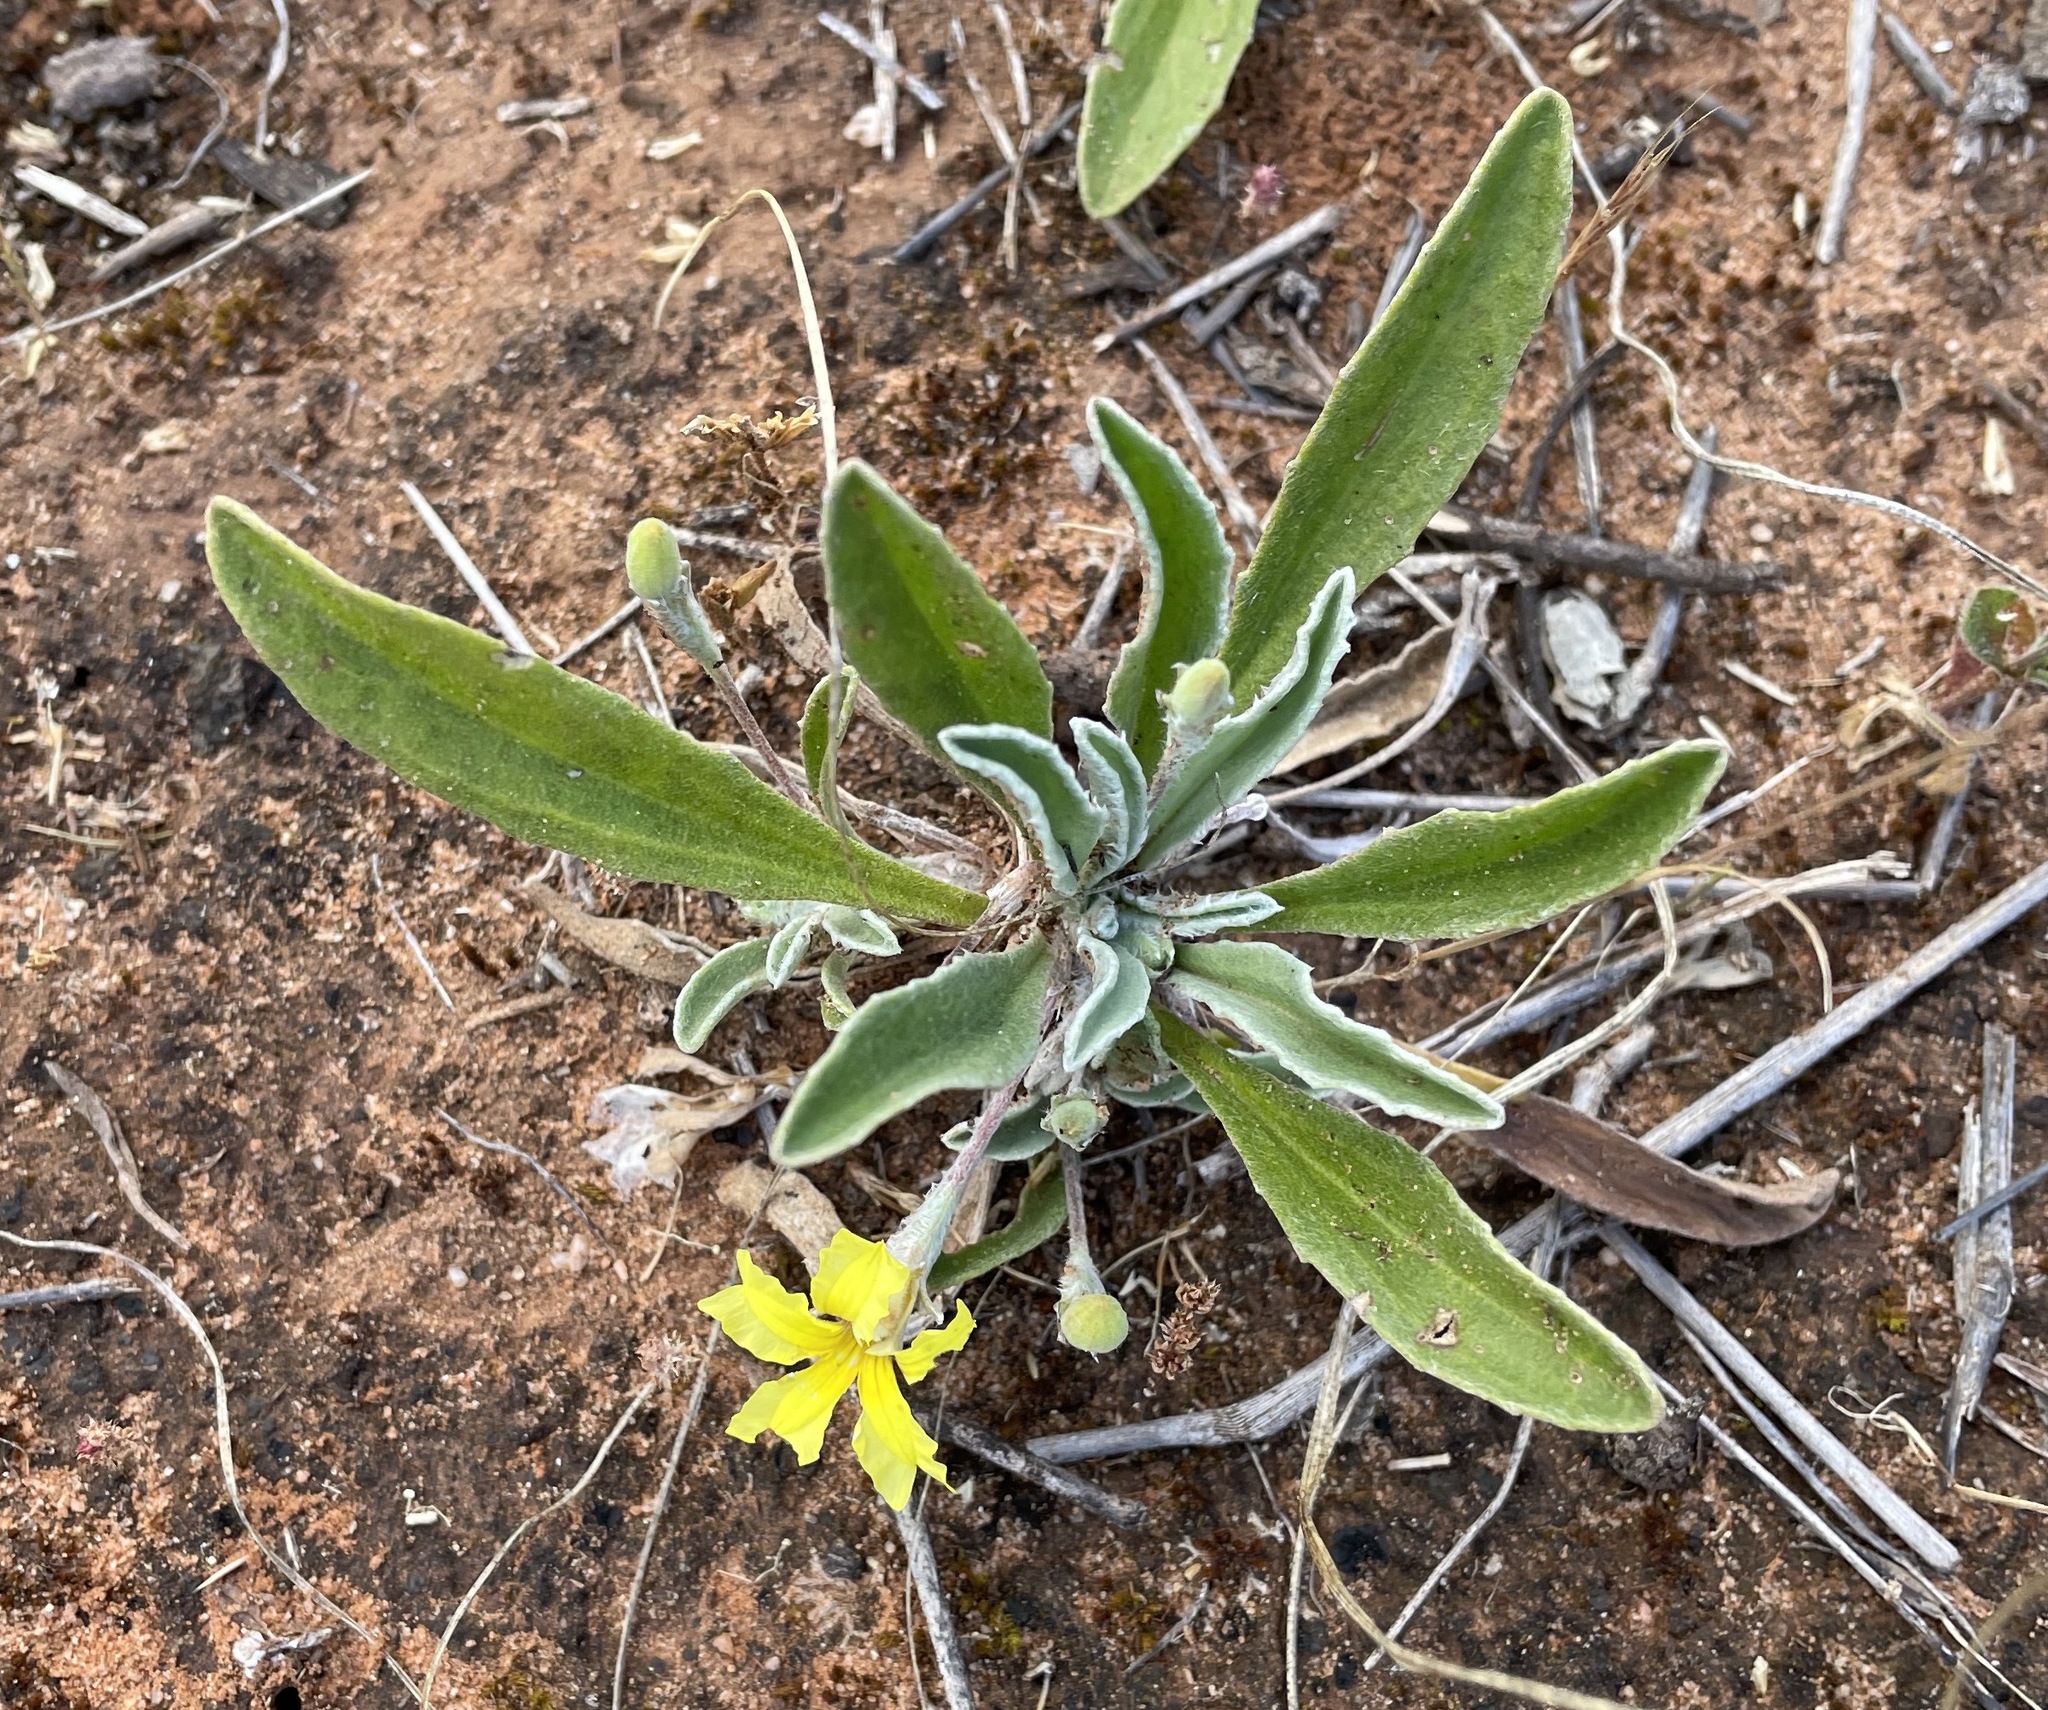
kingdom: Plantae
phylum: Tracheophyta
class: Magnoliopsida
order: Asterales
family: Goodeniaceae
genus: Goodenia
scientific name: Goodenia willisiana
